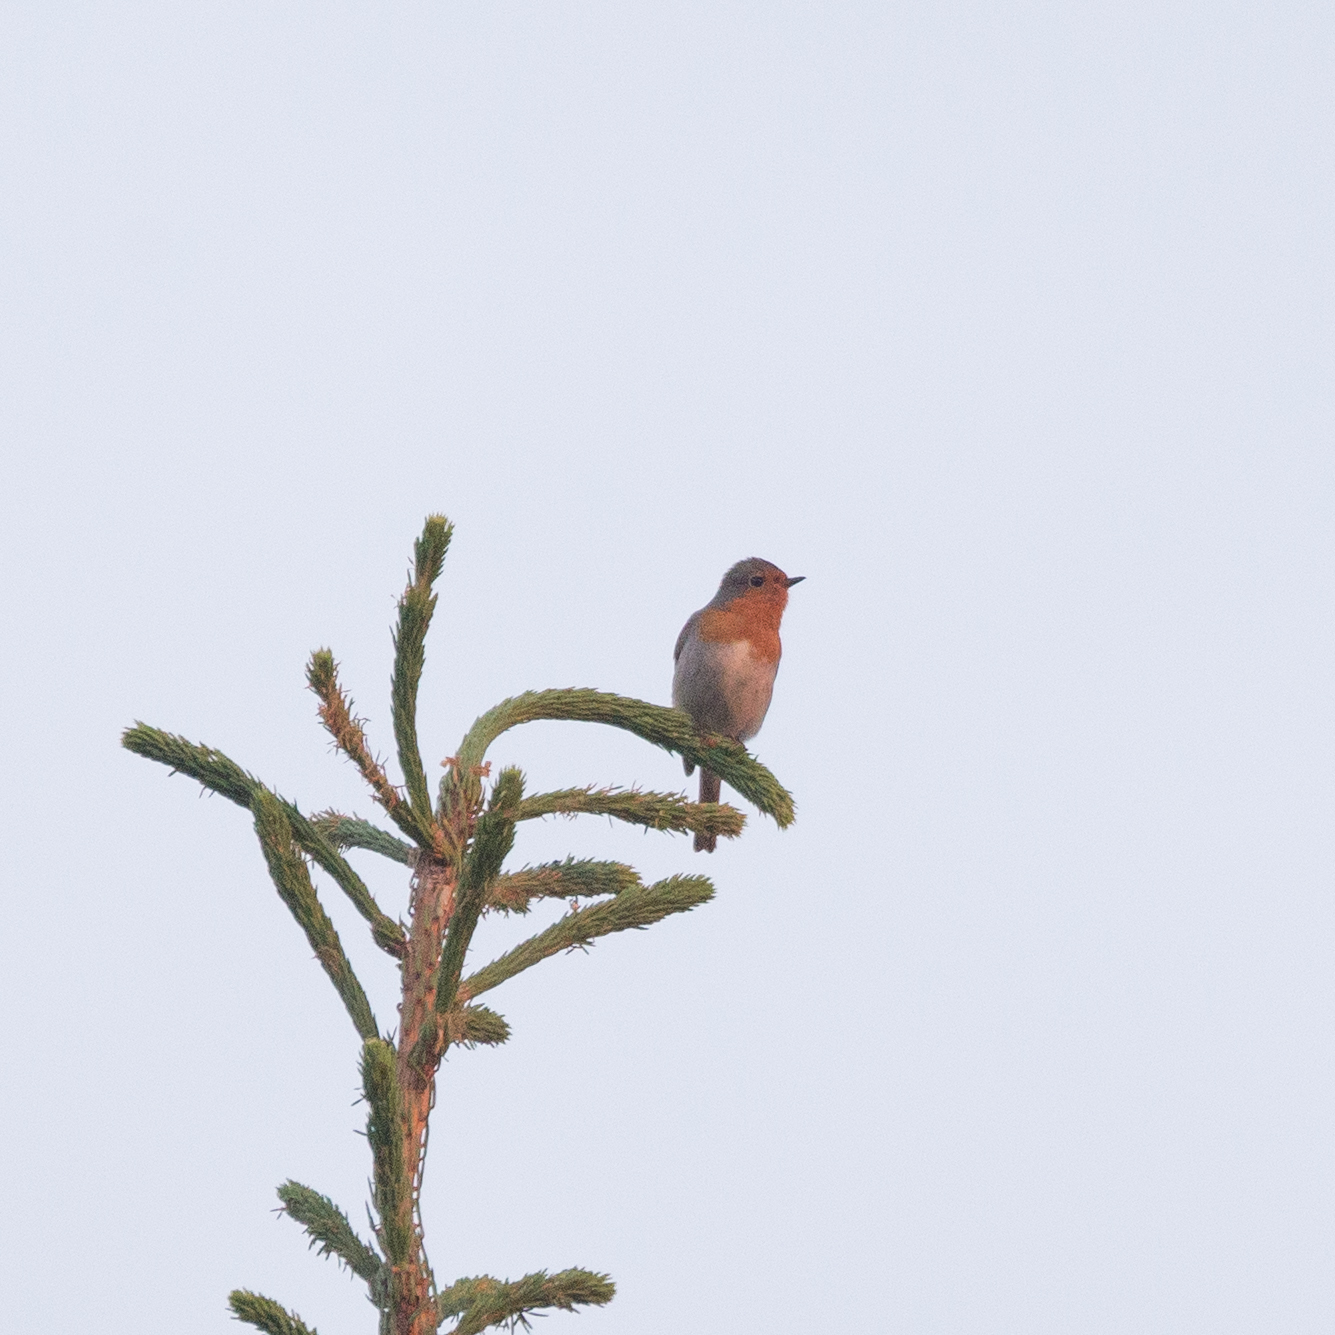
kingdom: Animalia
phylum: Chordata
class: Aves
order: Passeriformes
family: Muscicapidae
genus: Erithacus
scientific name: Erithacus rubecula
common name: European robin
